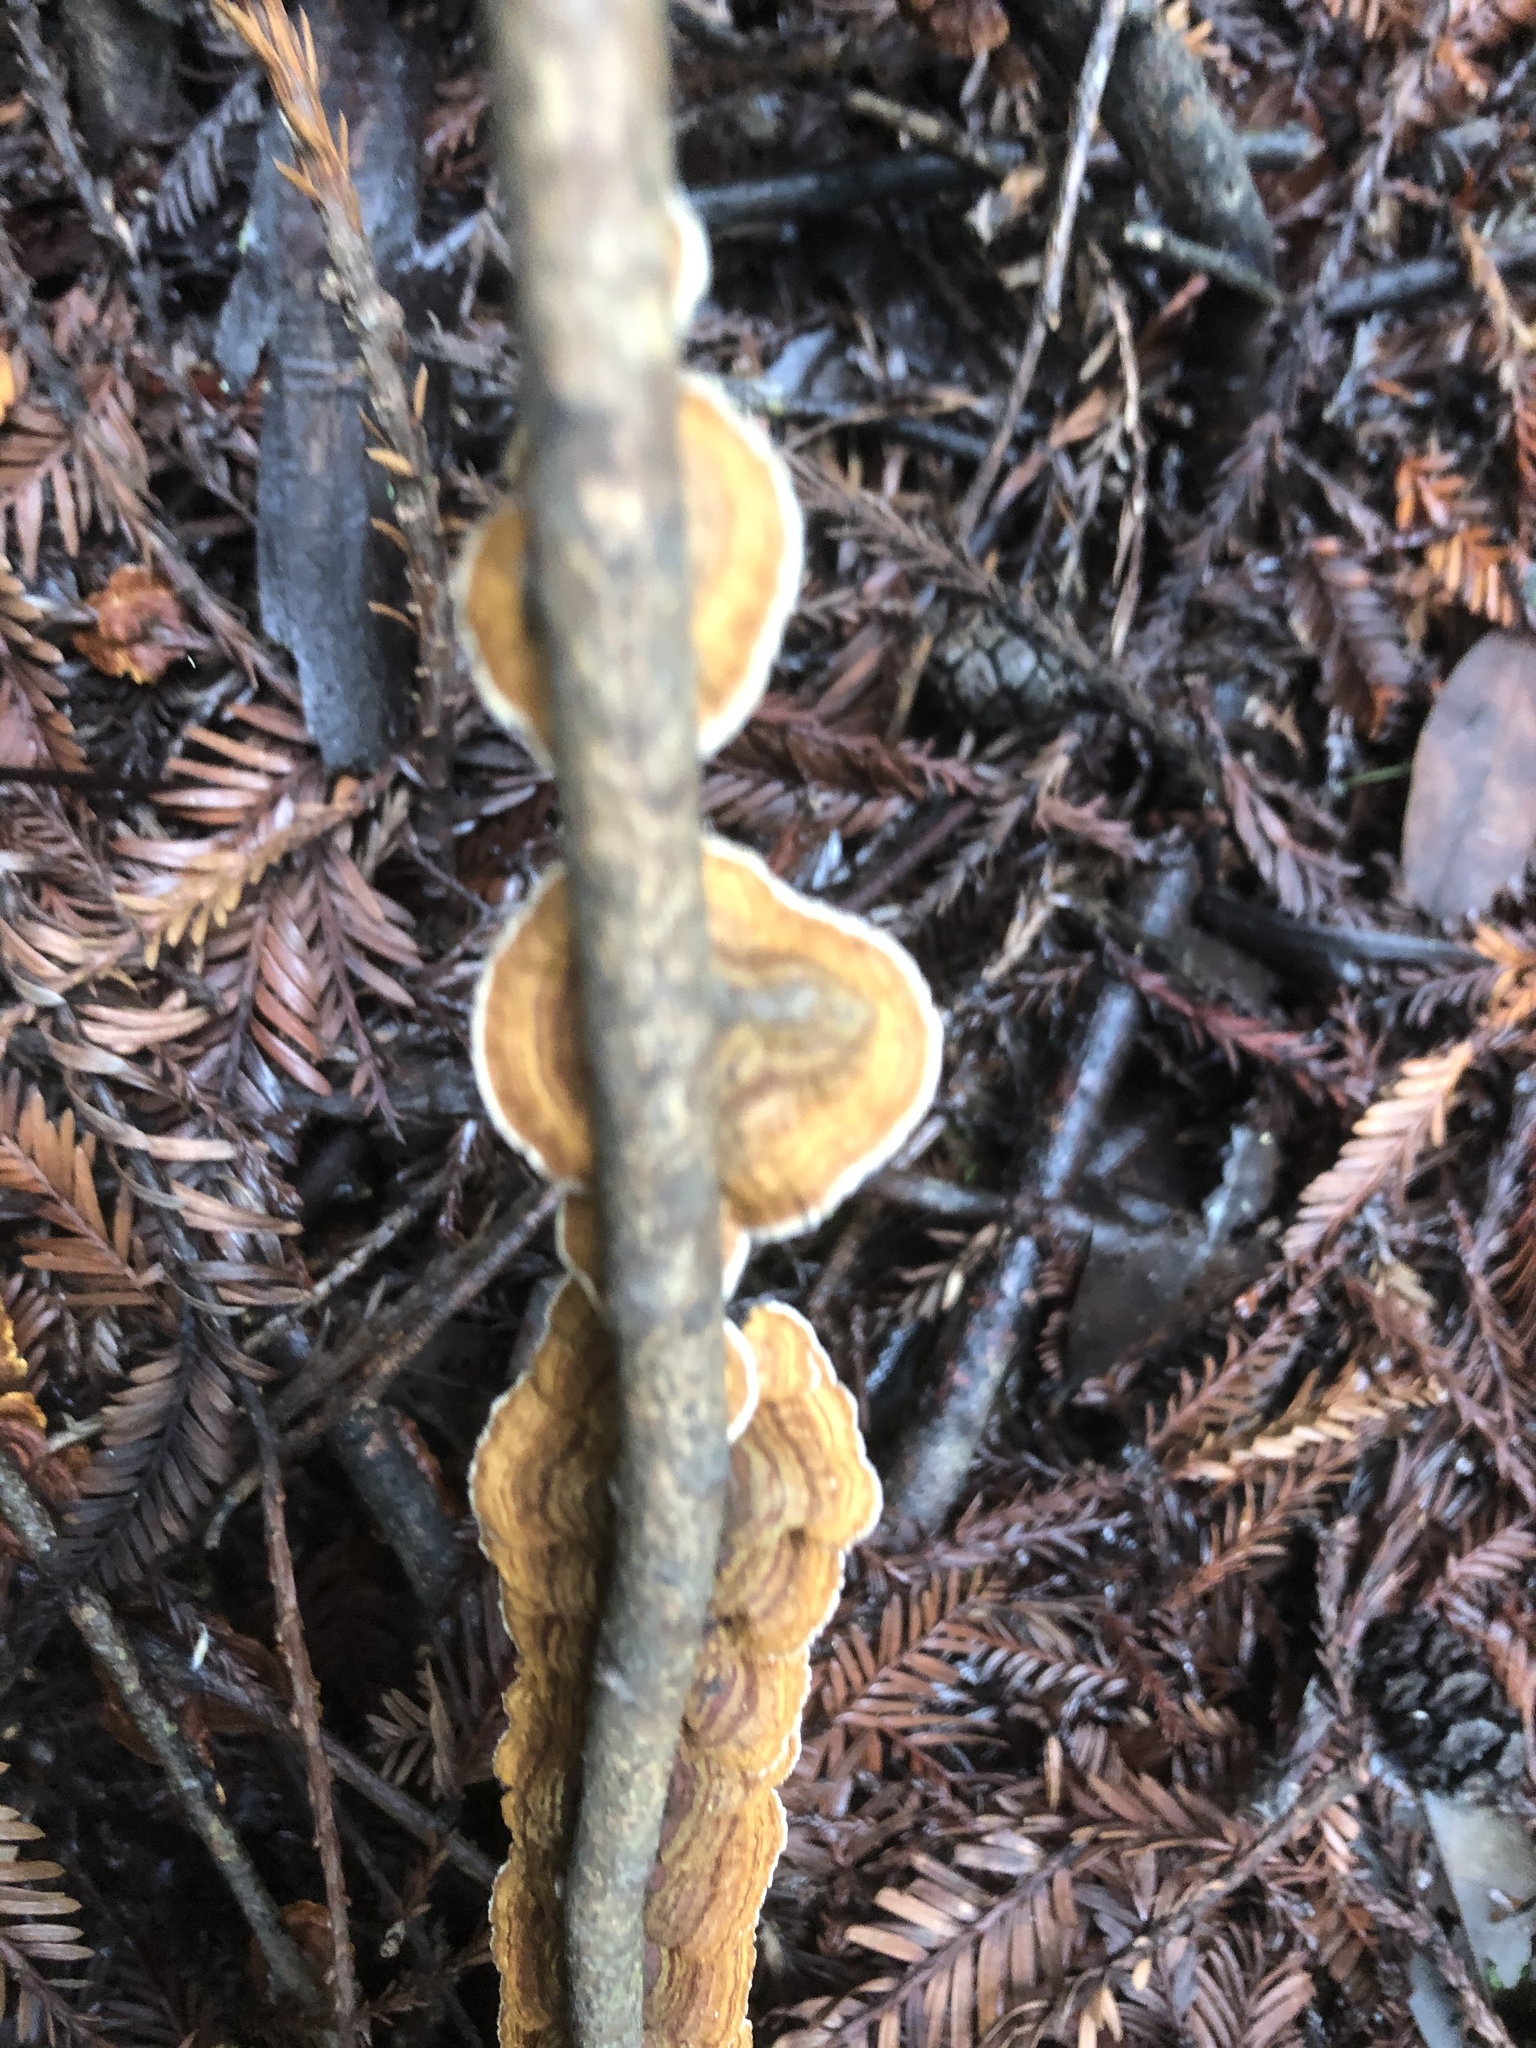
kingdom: Fungi
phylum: Basidiomycota
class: Agaricomycetes
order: Russulales
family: Stereaceae
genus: Stereum
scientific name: Stereum hirsutum
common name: Hairy curtain crust
